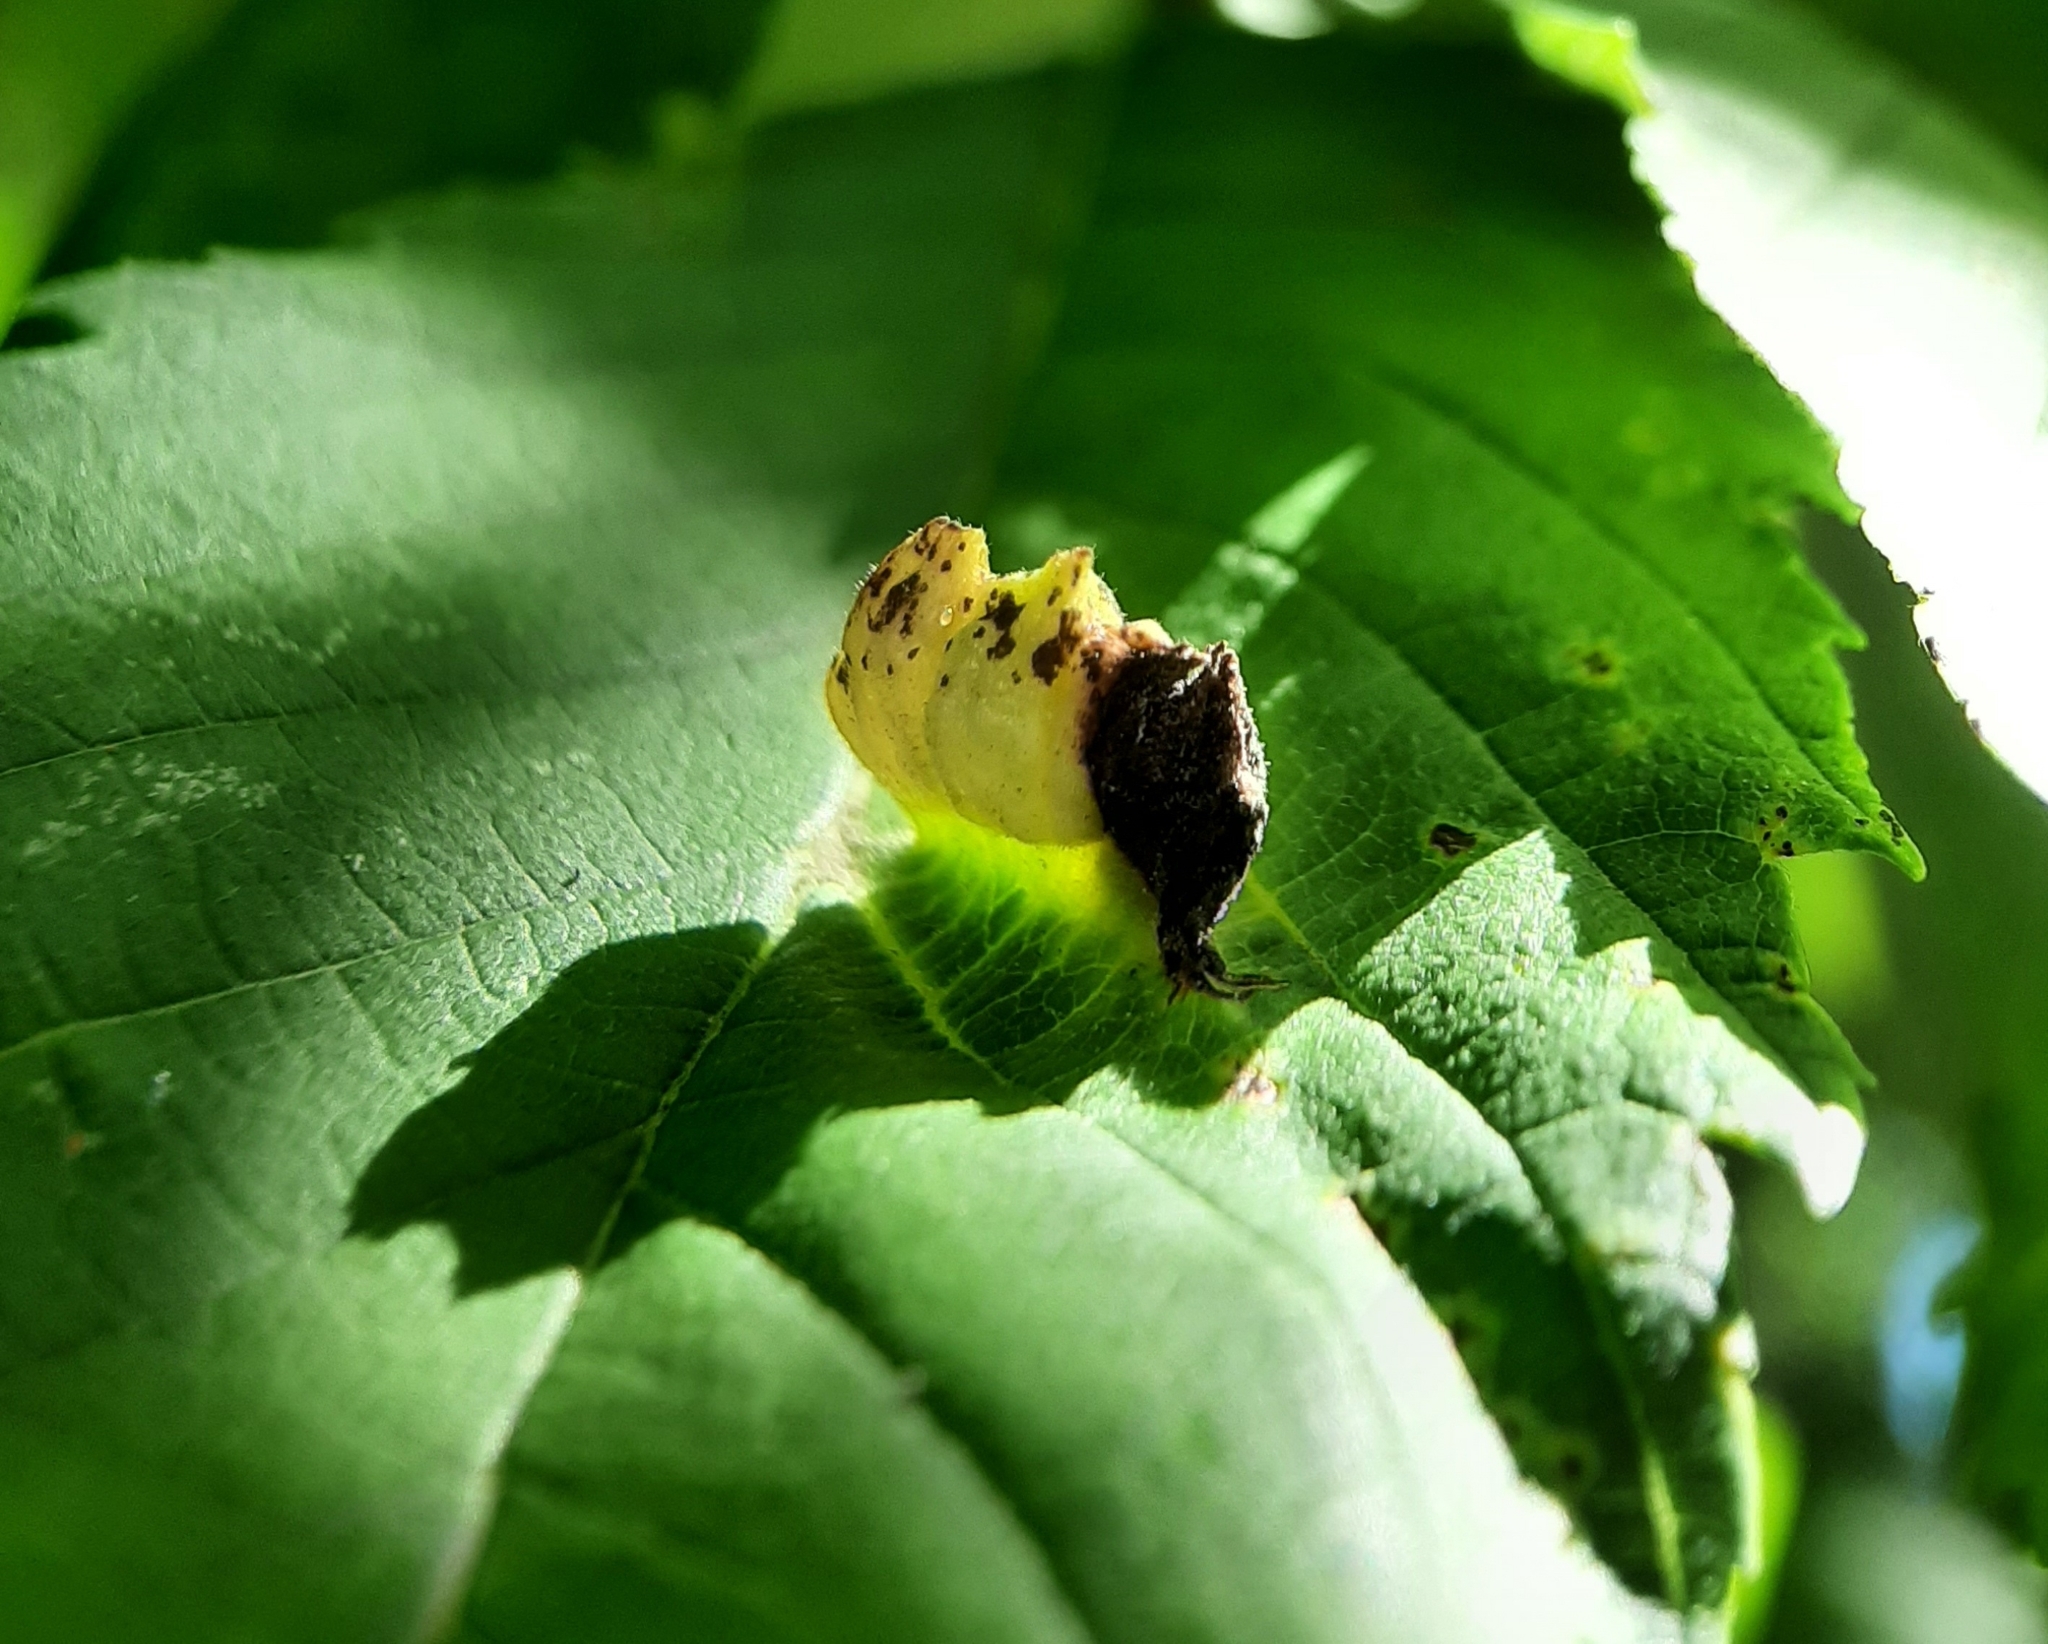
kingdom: Animalia
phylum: Arthropoda
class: Insecta
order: Hemiptera
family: Aphididae
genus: Colopha
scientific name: Colopha ulmicola
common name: Elm cockscombgall aphid
